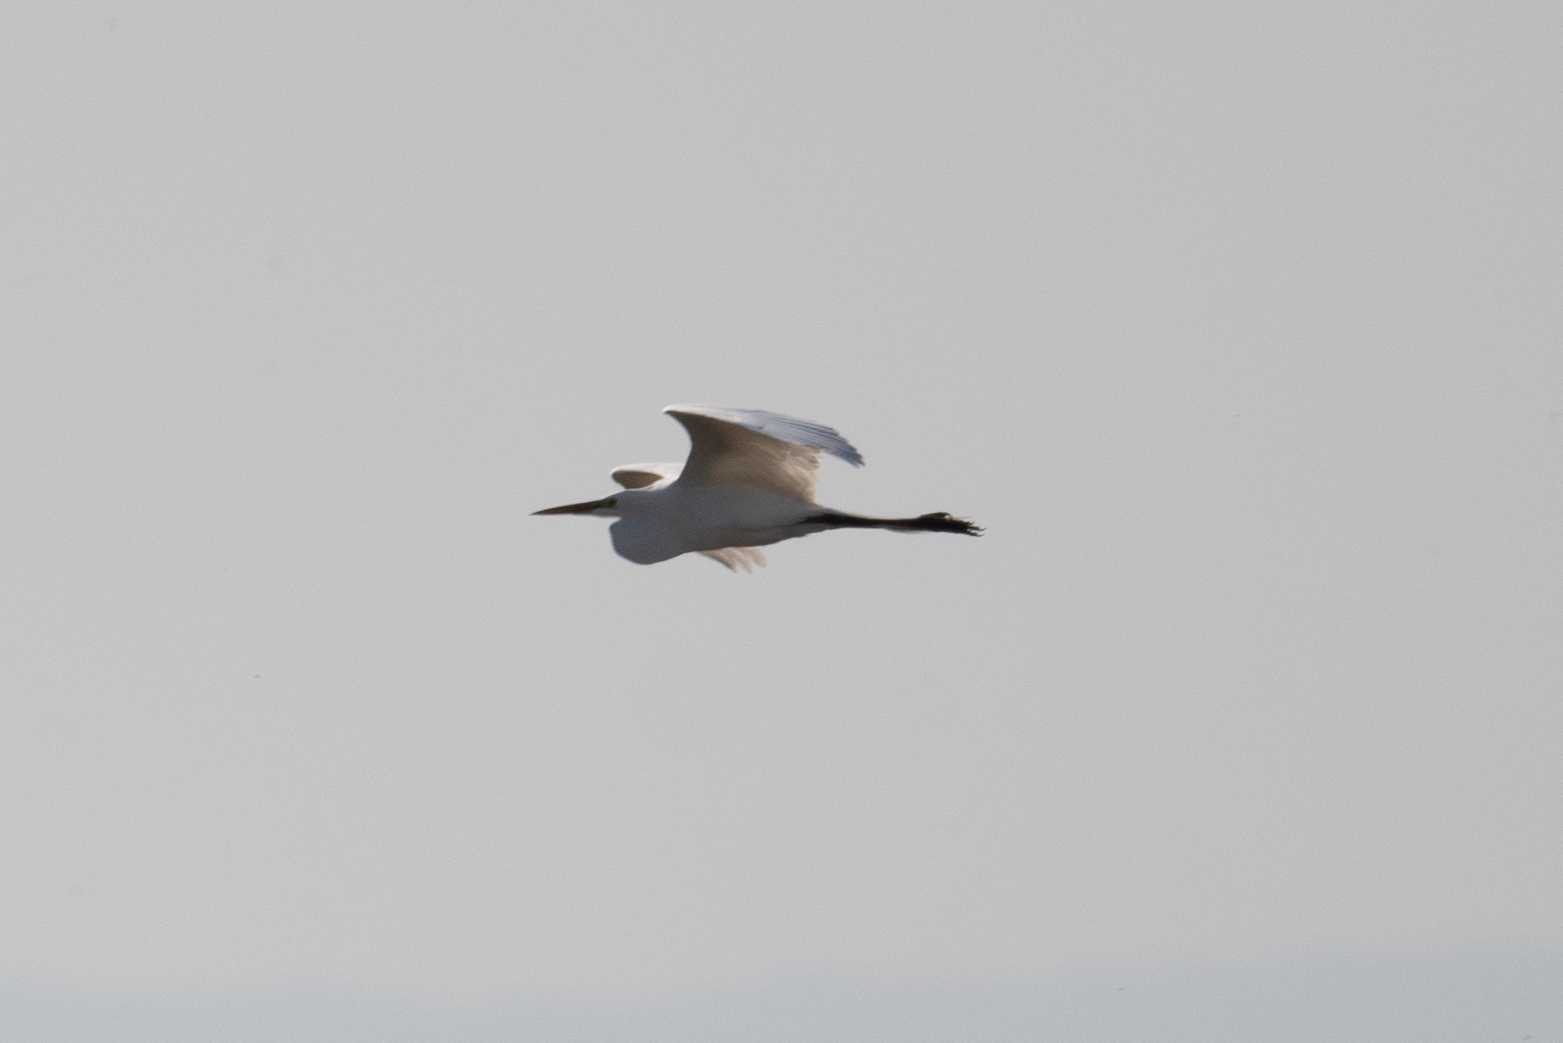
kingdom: Animalia
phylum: Chordata
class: Aves
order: Pelecaniformes
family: Ardeidae
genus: Ardea
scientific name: Ardea alba
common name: Great egret
